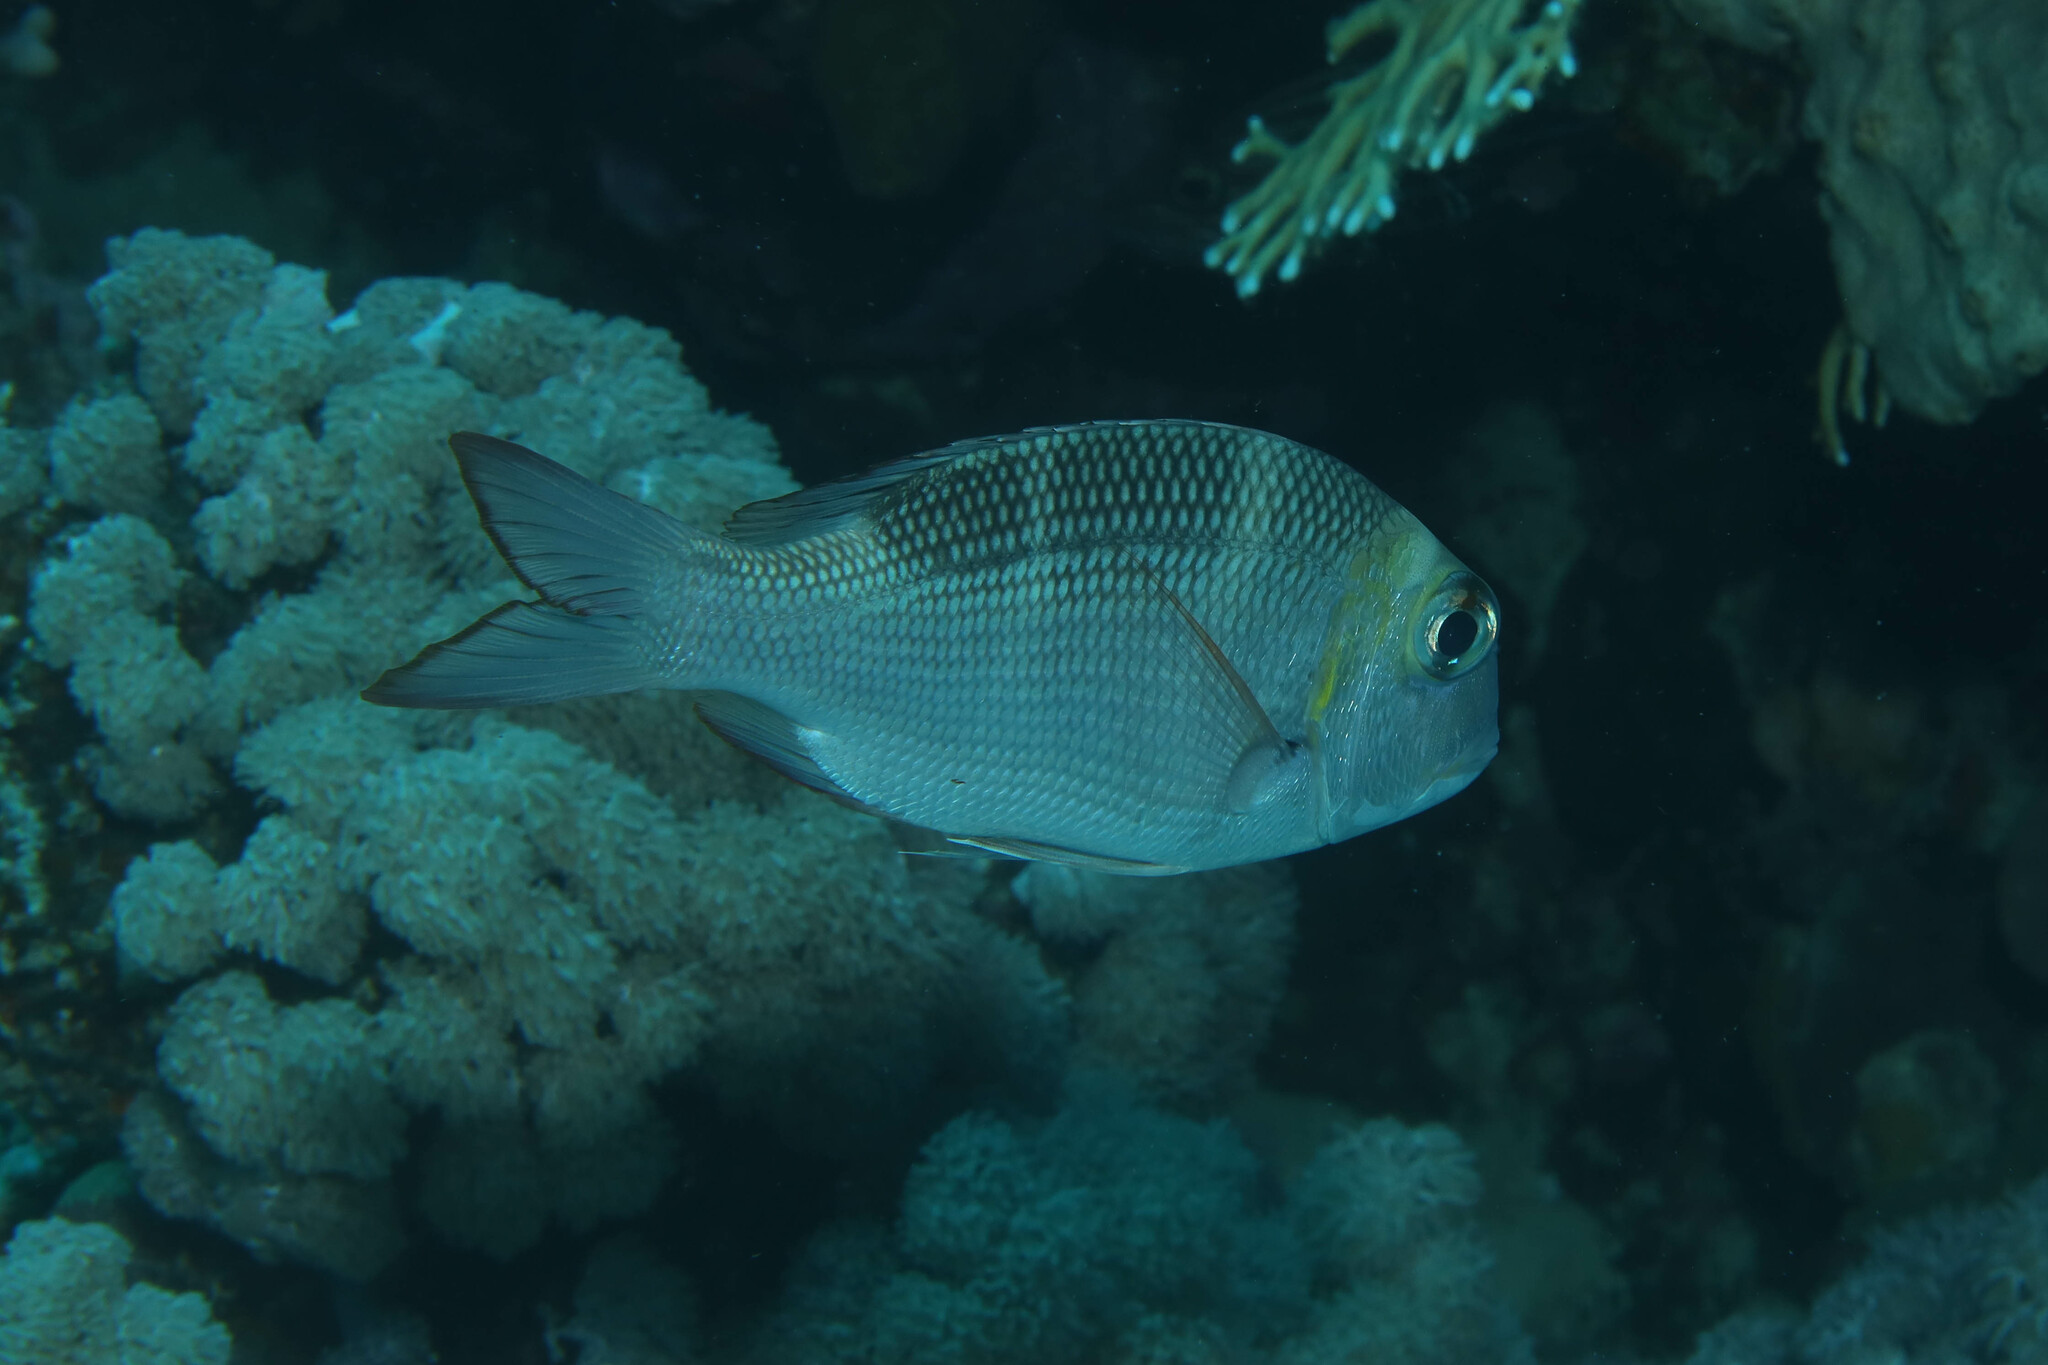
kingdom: Animalia
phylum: Chordata
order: Perciformes
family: Lethrinidae
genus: Monotaxis
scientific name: Monotaxis grandoculis
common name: Bigeye emperor
